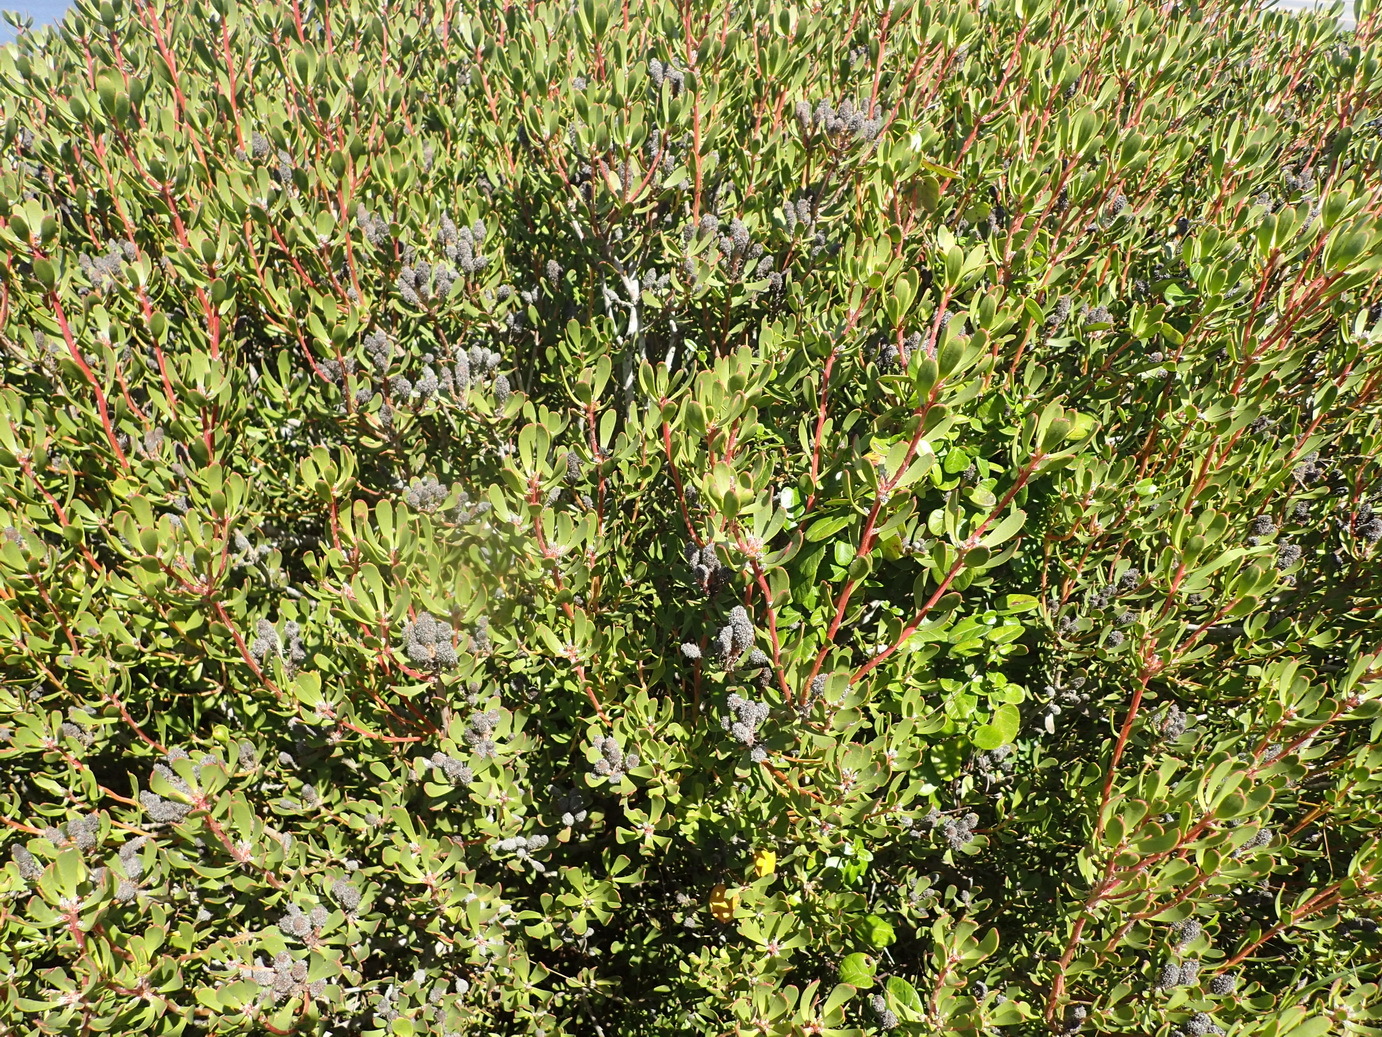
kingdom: Plantae
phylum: Tracheophyta
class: Magnoliopsida
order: Proteales
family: Proteaceae
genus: Leucadendron
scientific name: Leucadendron muirii
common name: Silver-ball conebush
